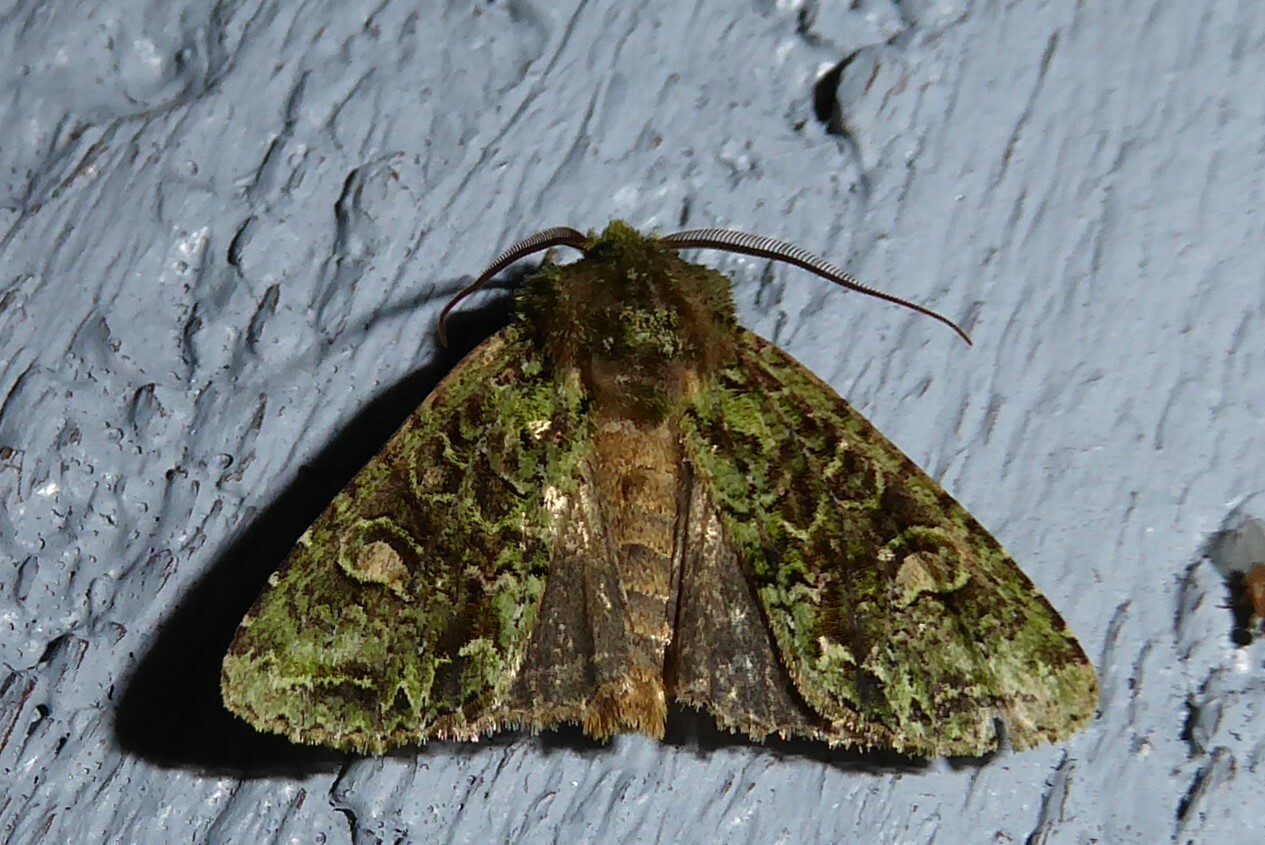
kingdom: Animalia
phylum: Arthropoda
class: Insecta
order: Lepidoptera
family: Noctuidae
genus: Ichneutica
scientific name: Ichneutica
